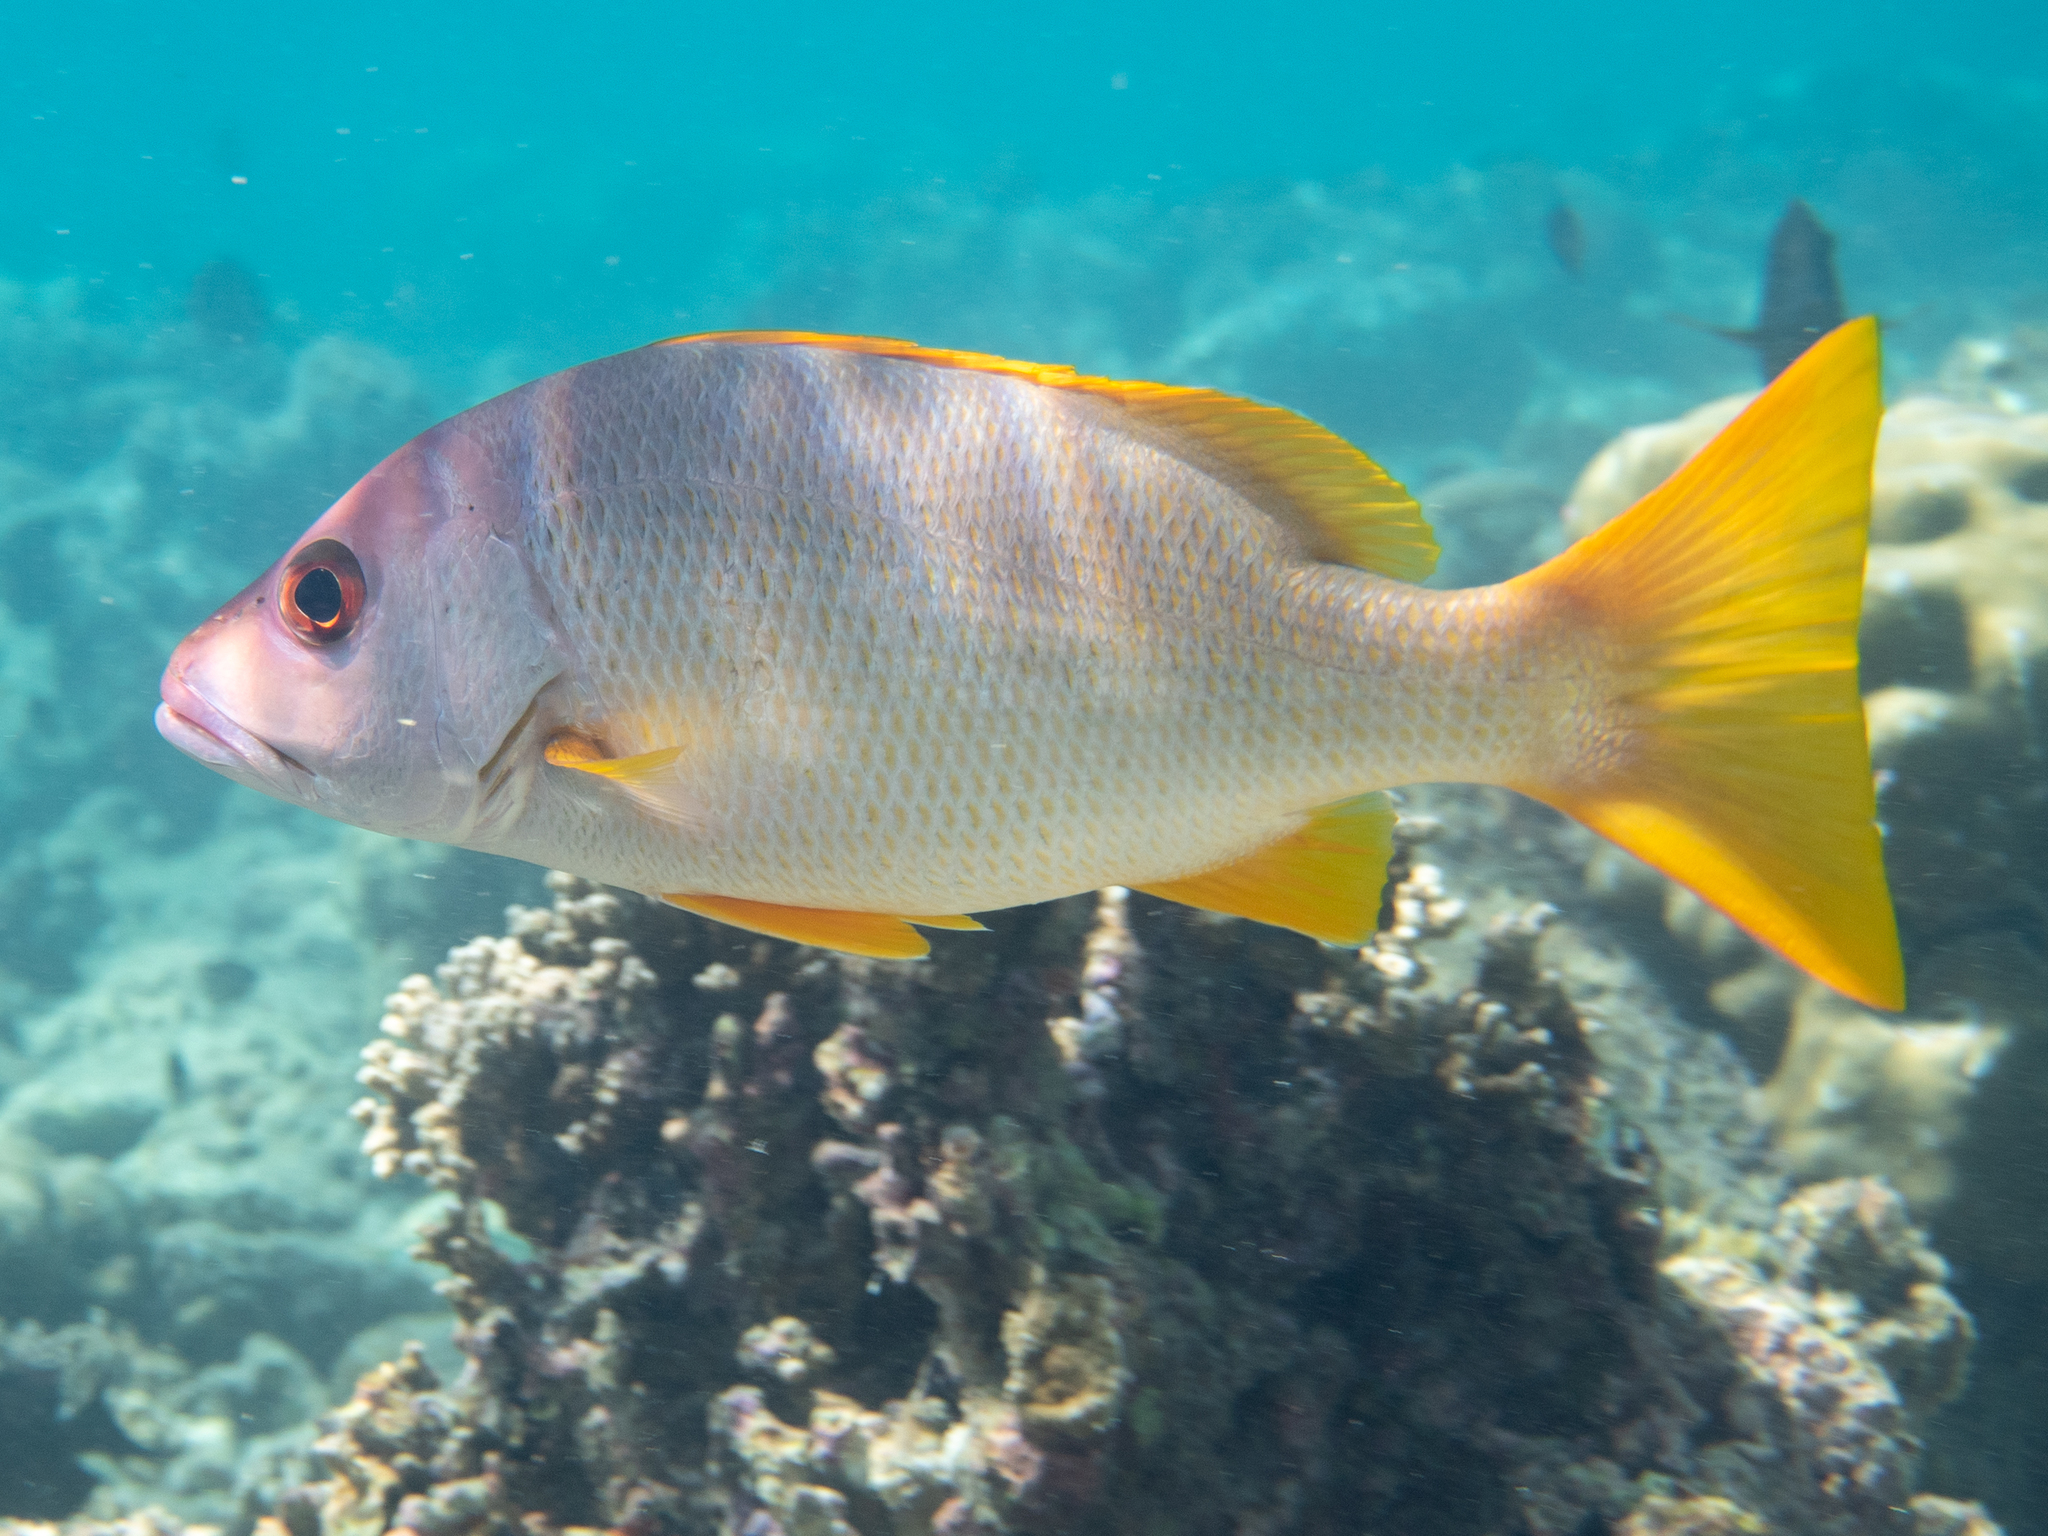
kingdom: Animalia
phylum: Chordata
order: Perciformes
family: Lutjanidae
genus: Lutjanus
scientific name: Lutjanus monostigma
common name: Onespot snapper
